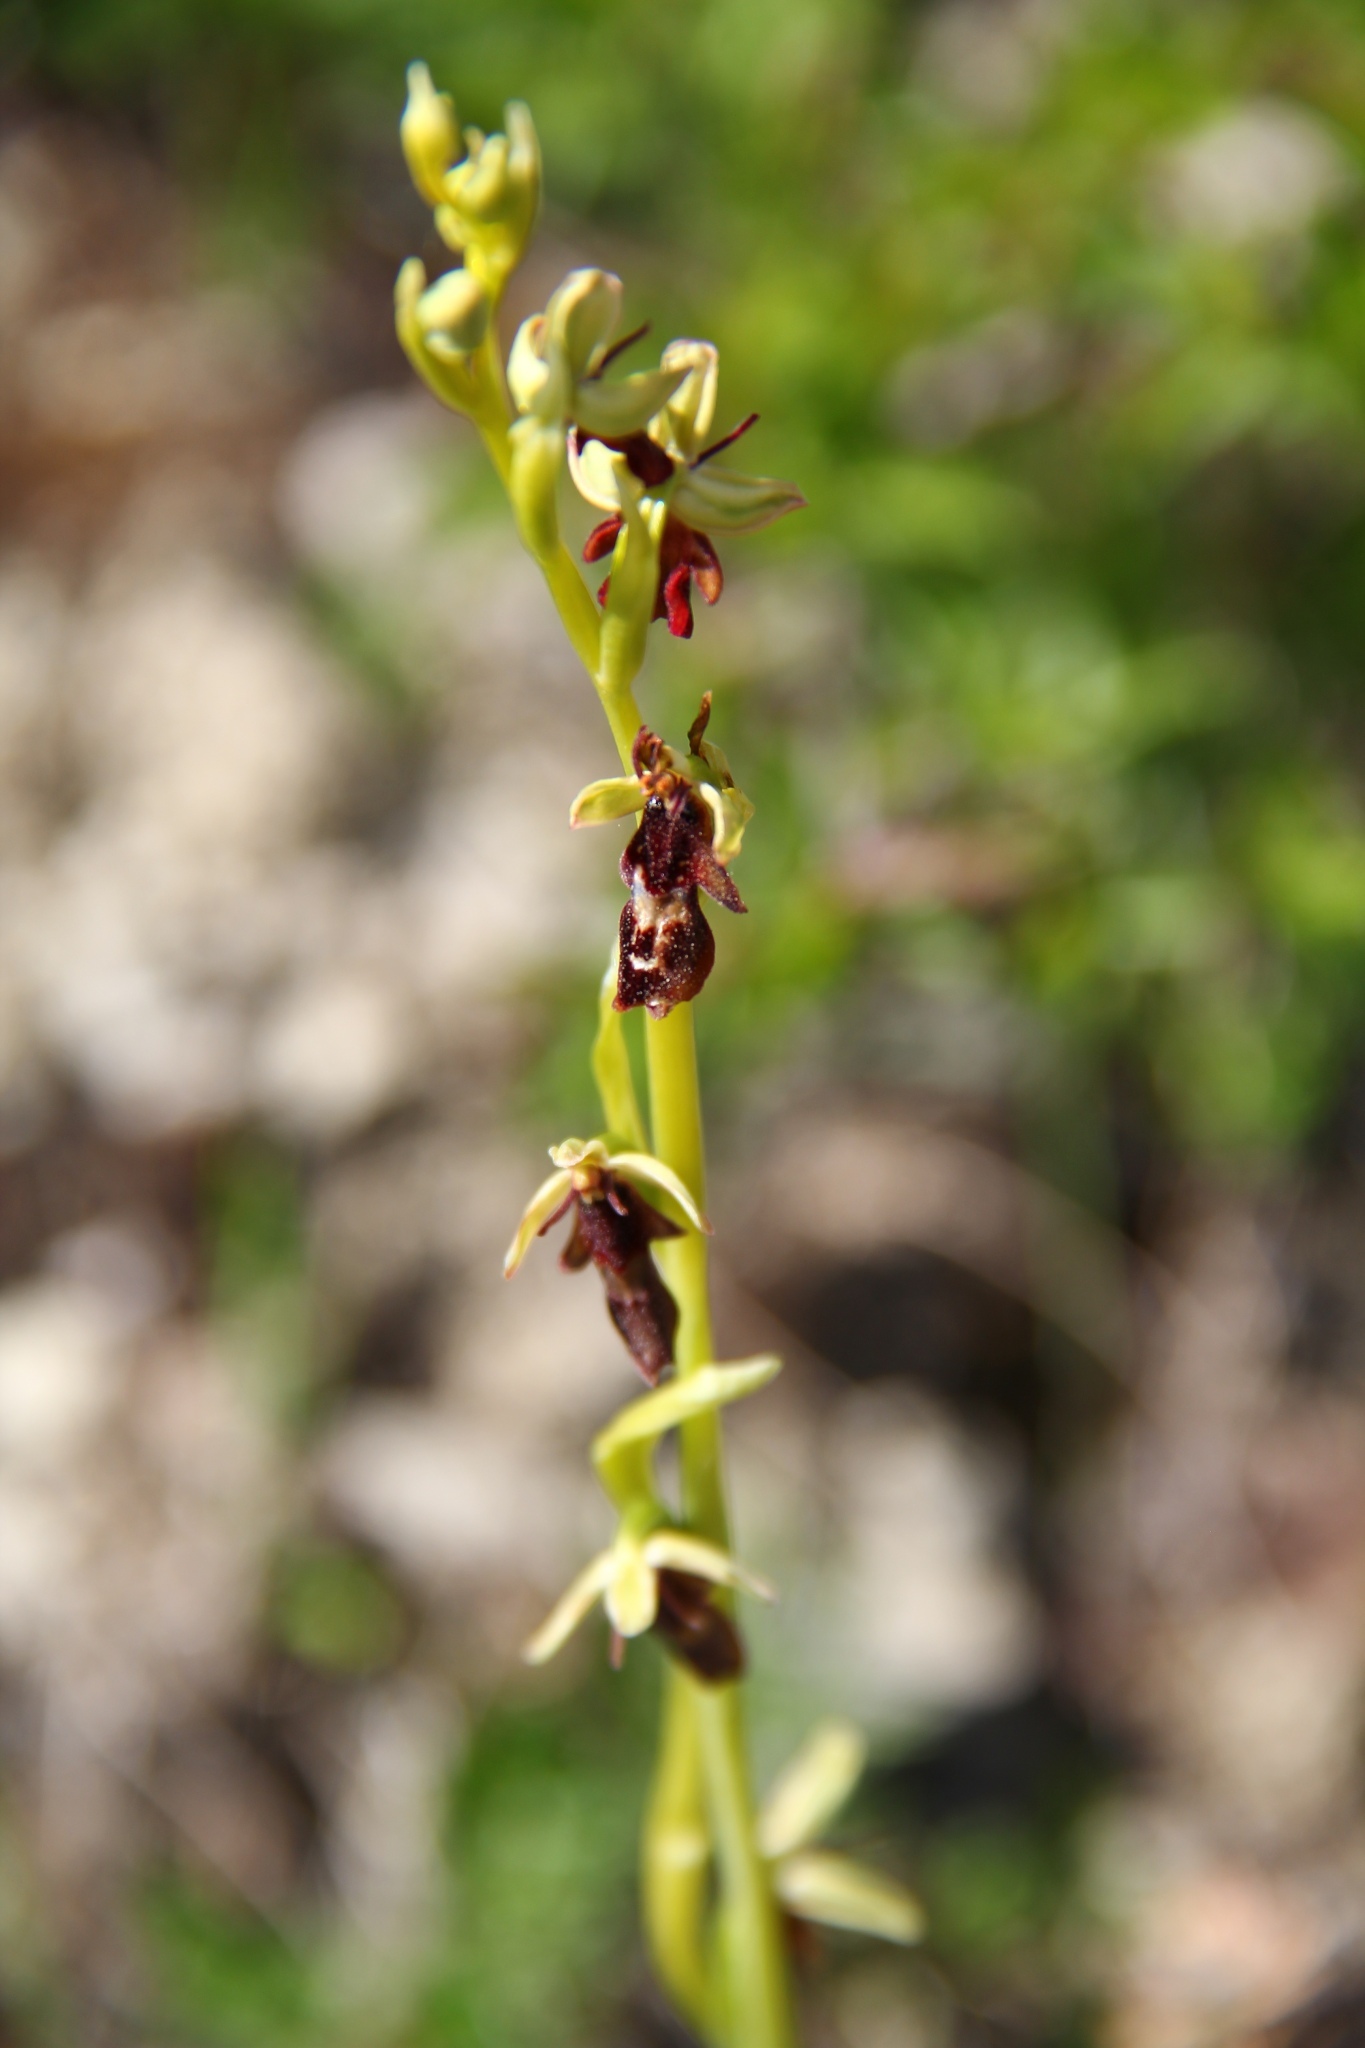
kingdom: Plantae
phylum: Tracheophyta
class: Liliopsida
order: Asparagales
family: Orchidaceae
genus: Ophrys
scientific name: Ophrys insectifera
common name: Fly orchid
